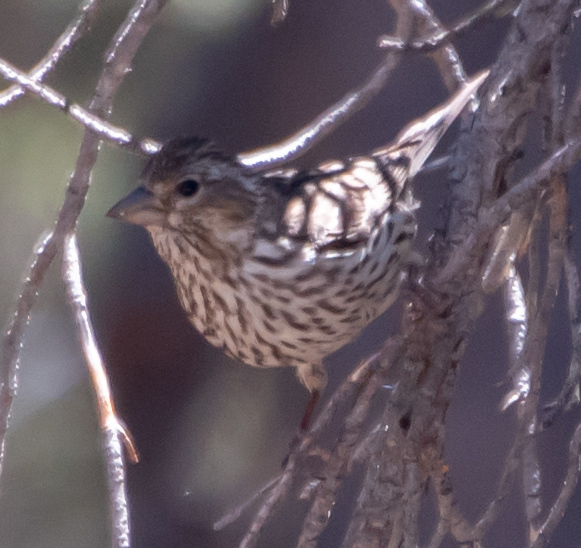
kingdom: Animalia
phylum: Chordata
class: Aves
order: Passeriformes
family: Fringillidae
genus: Haemorhous
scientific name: Haemorhous cassinii
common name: Cassin's finch
